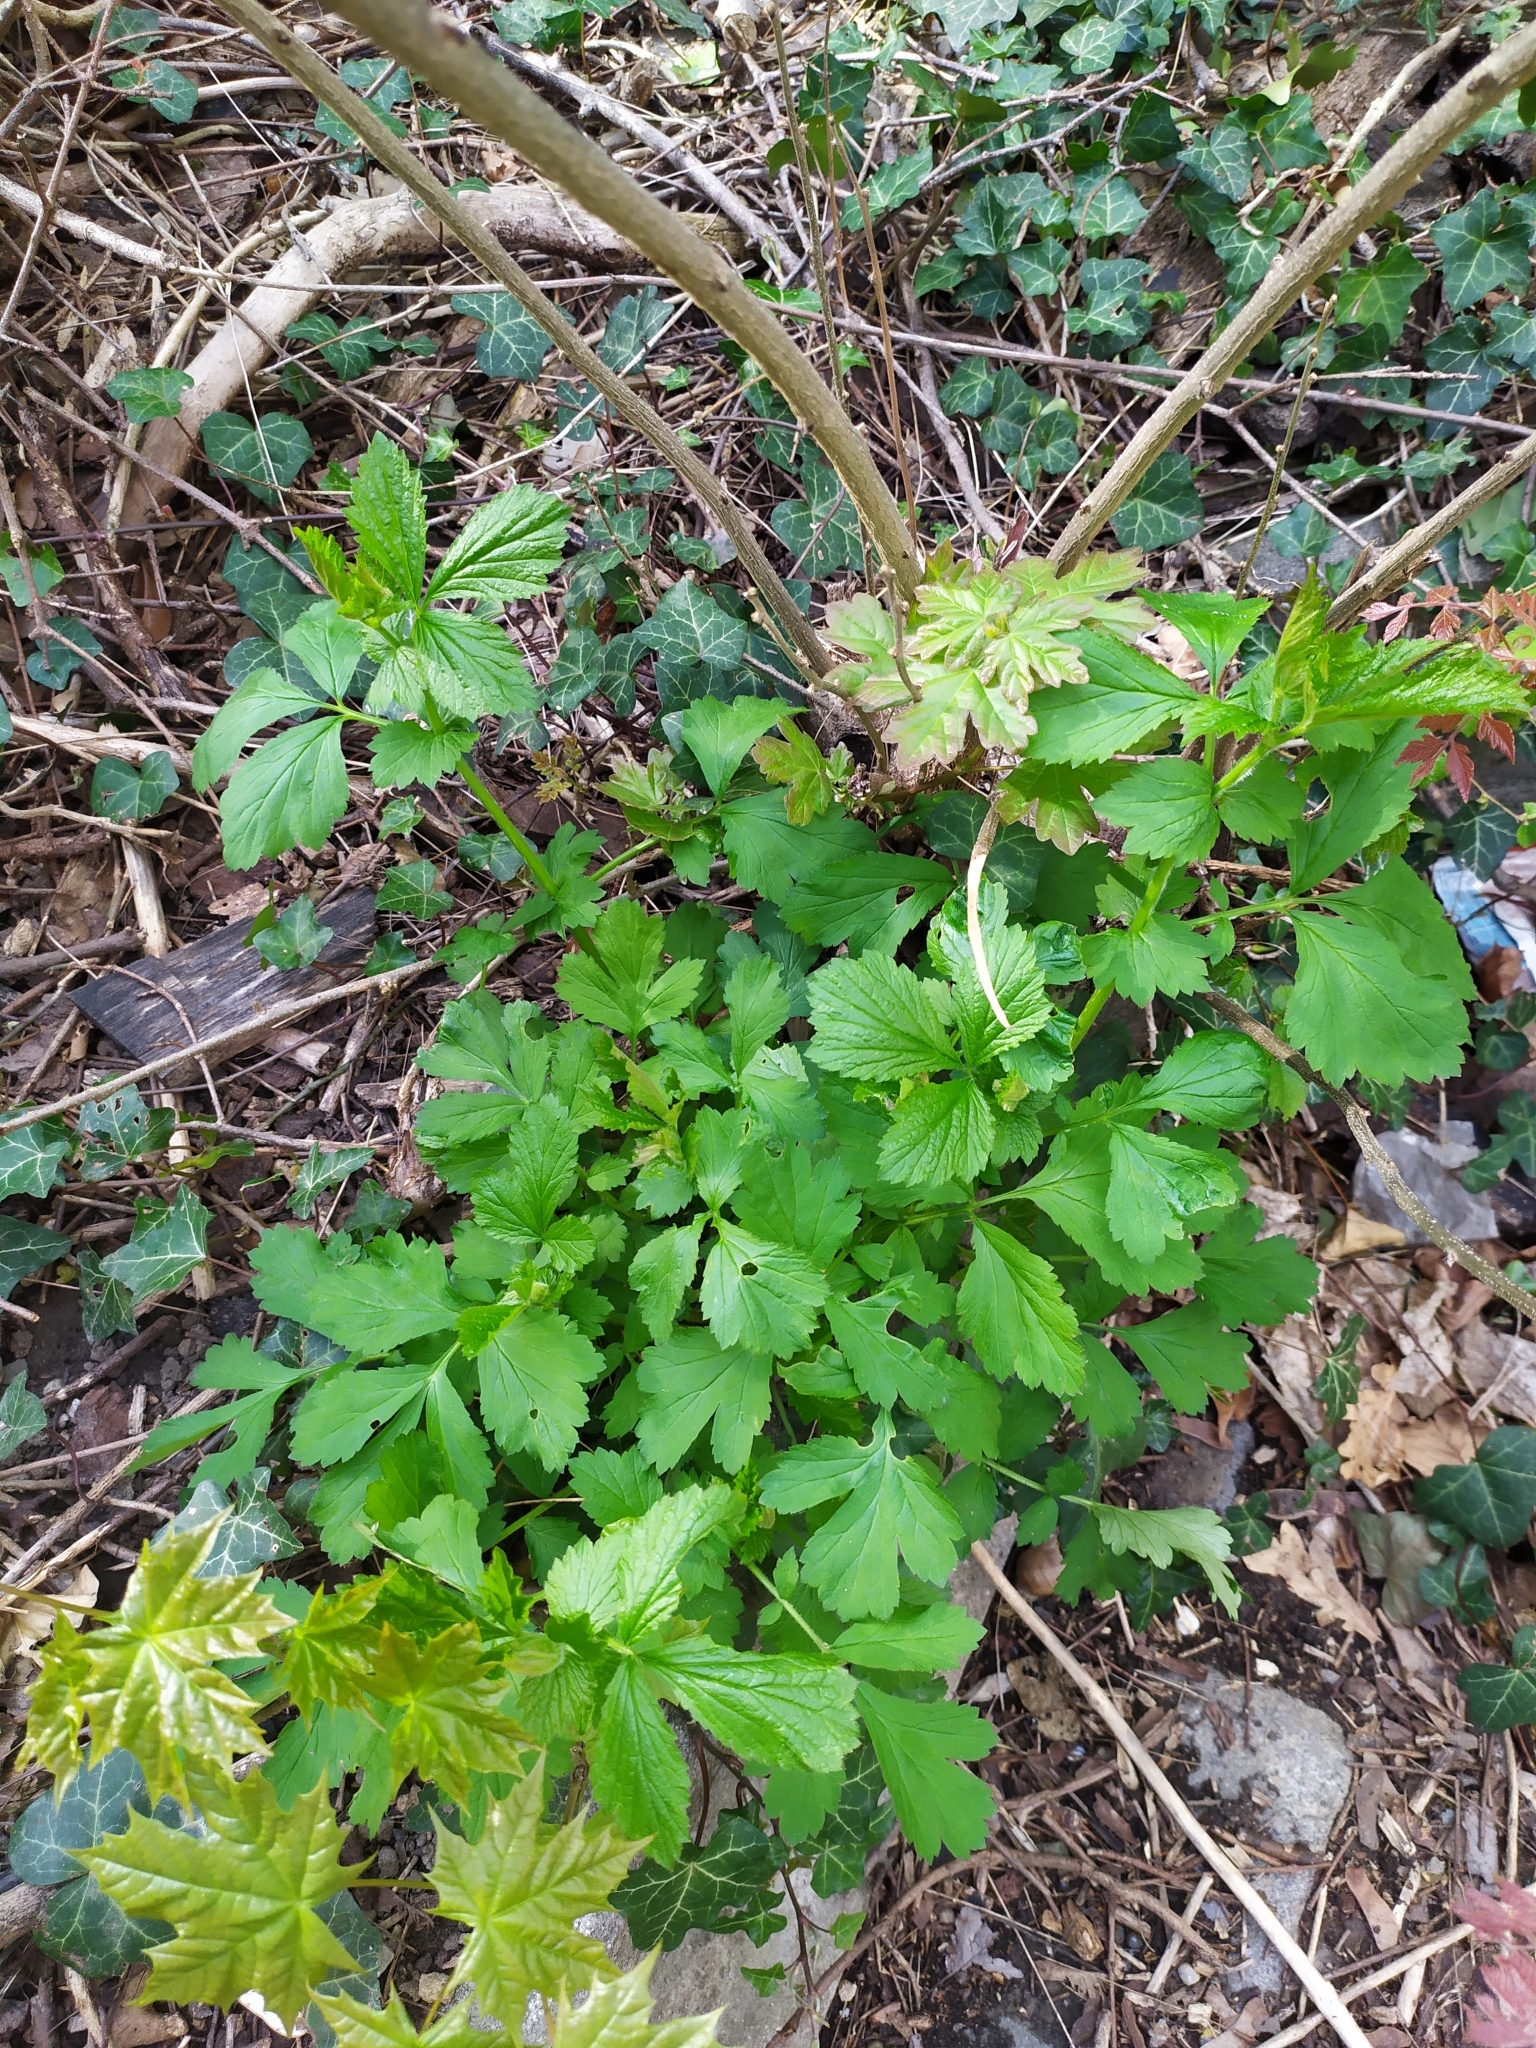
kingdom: Plantae
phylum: Tracheophyta
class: Magnoliopsida
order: Rosales
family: Rosaceae
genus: Geum
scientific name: Geum urbanum
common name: Wood avens
